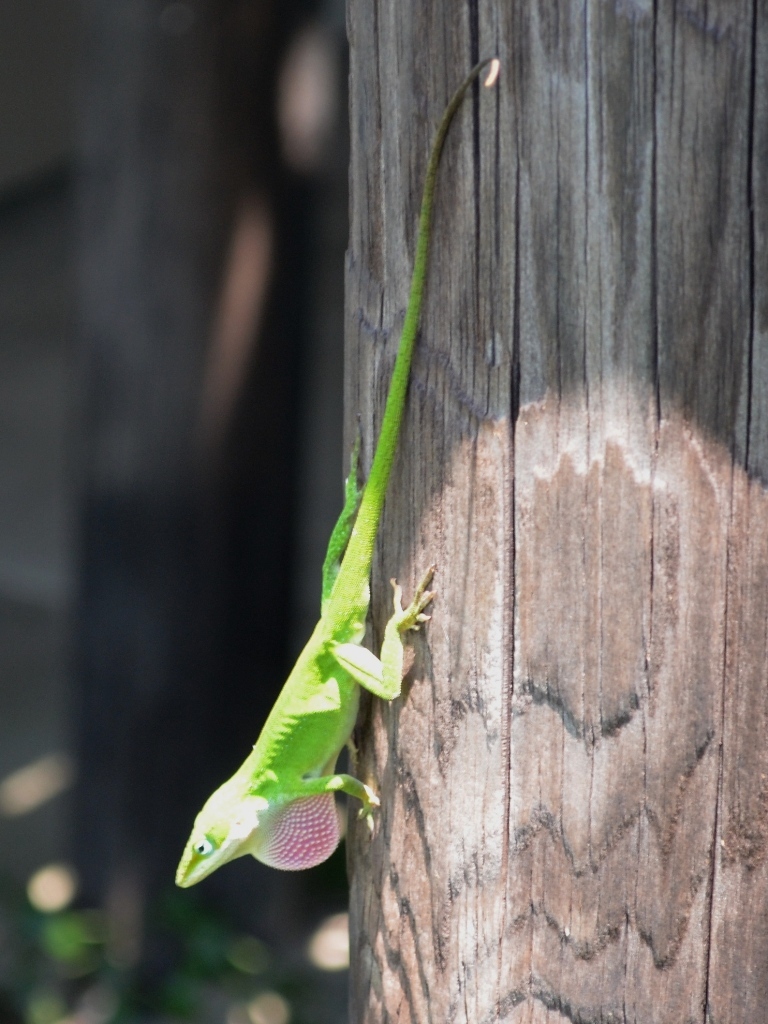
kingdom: Animalia
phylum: Chordata
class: Squamata
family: Dactyloidae
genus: Anolis
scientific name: Anolis carolinensis
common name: Green anole
